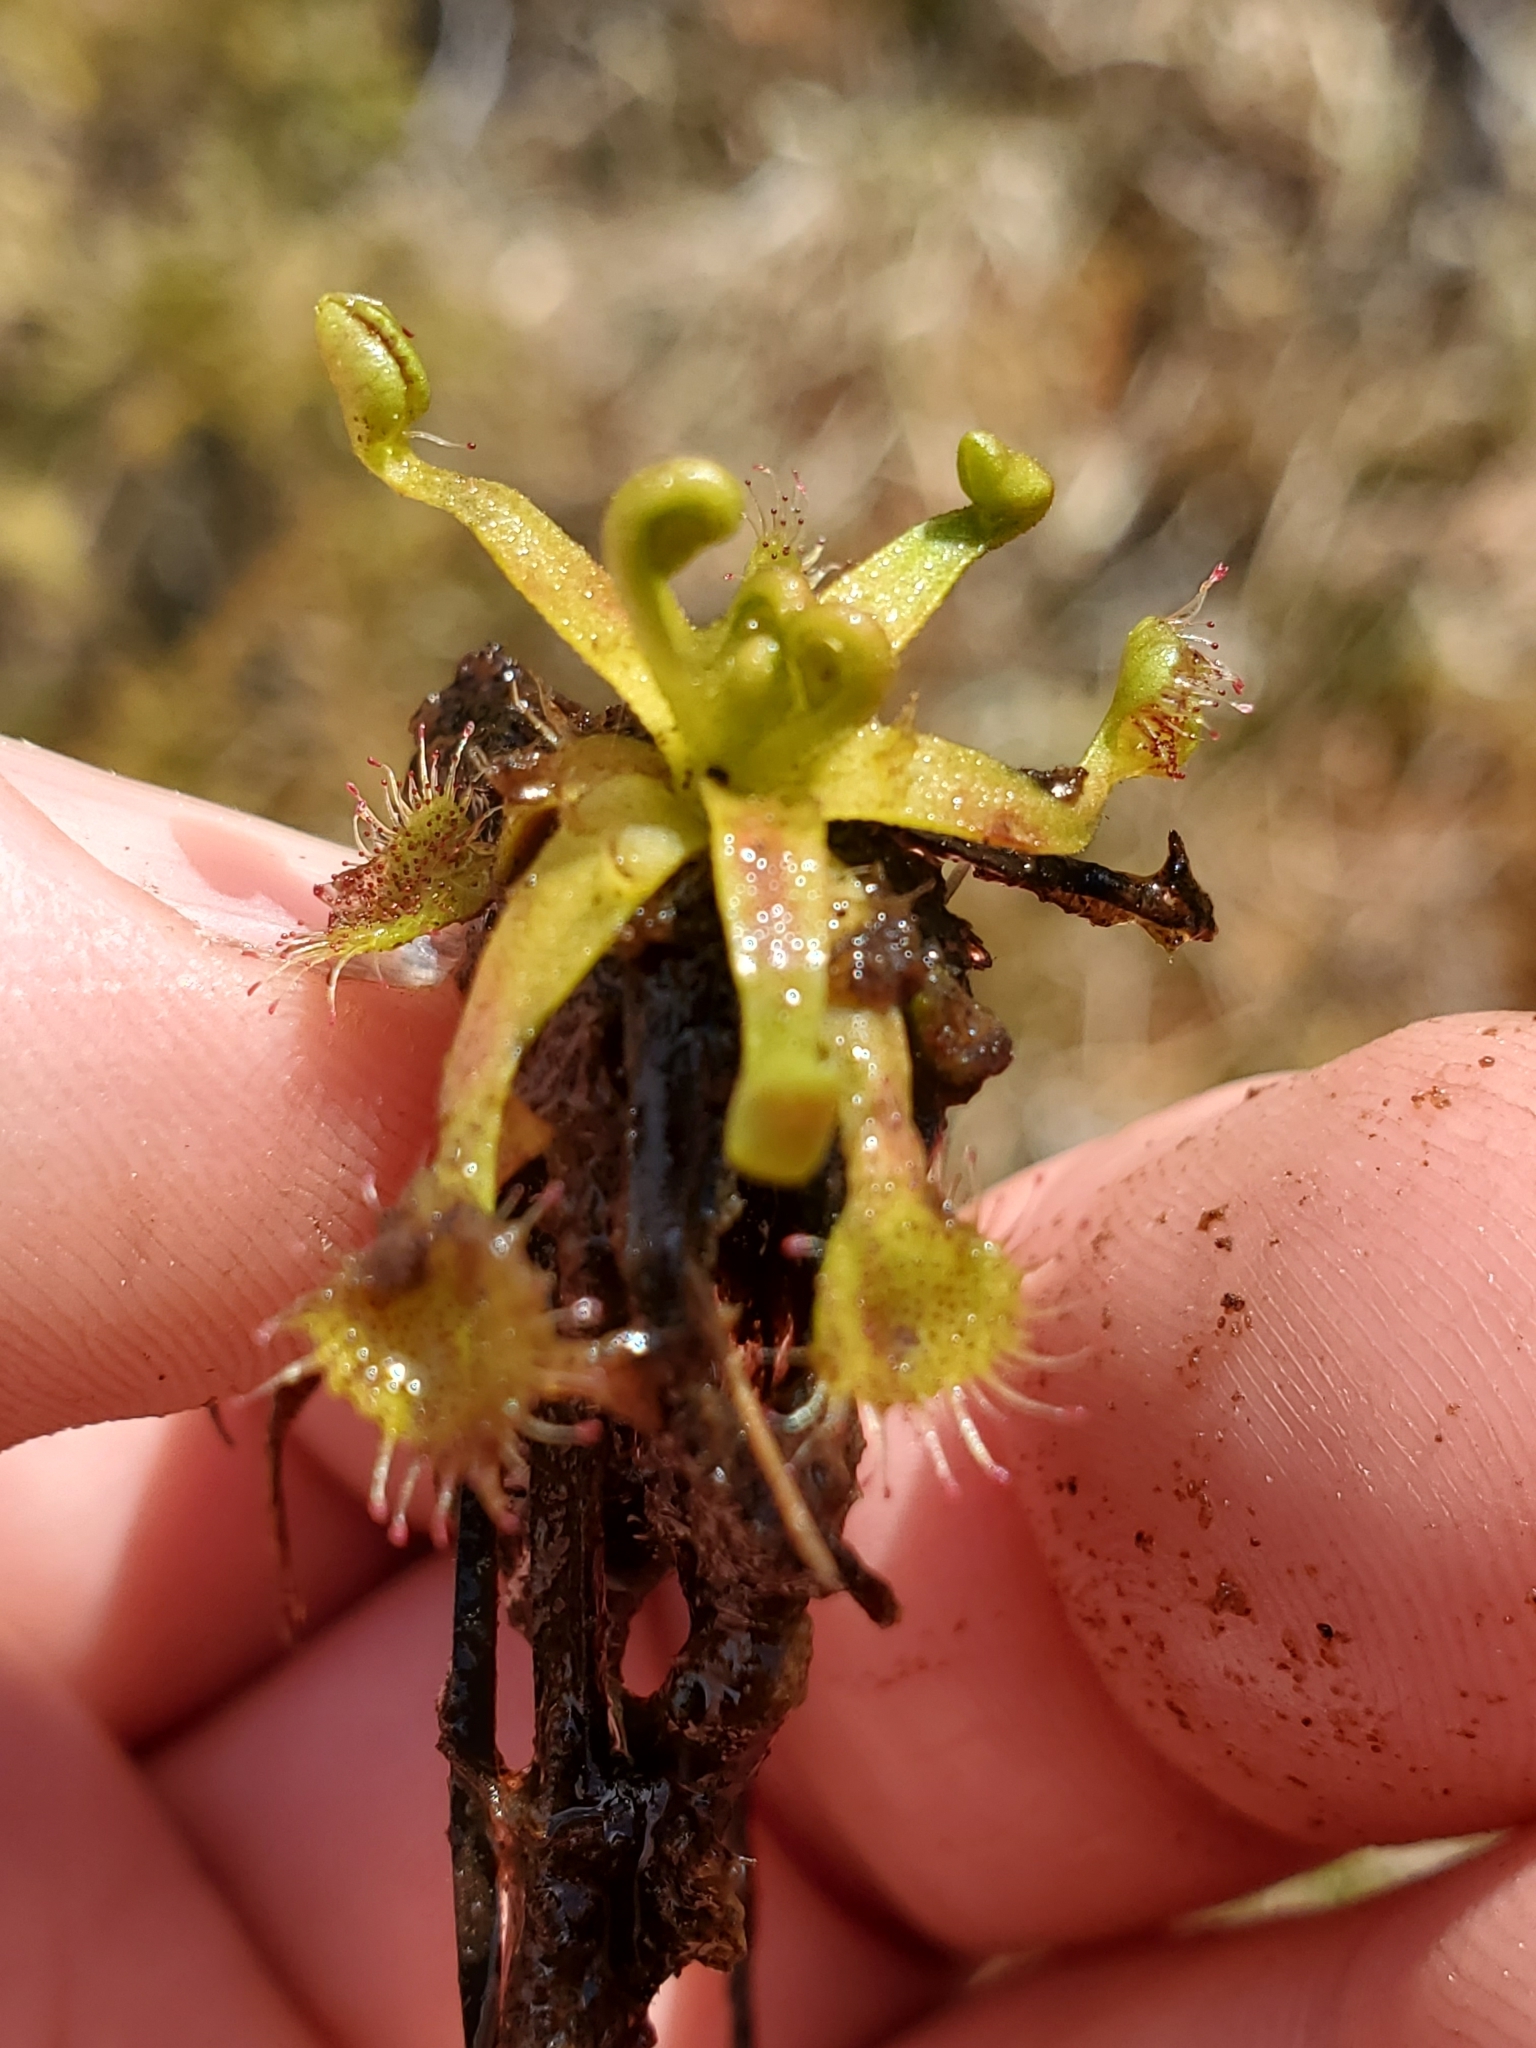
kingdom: Plantae
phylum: Tracheophyta
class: Magnoliopsida
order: Caryophyllales
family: Droseraceae
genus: Drosera
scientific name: Drosera rotundifolia
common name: Round-leaved sundew
